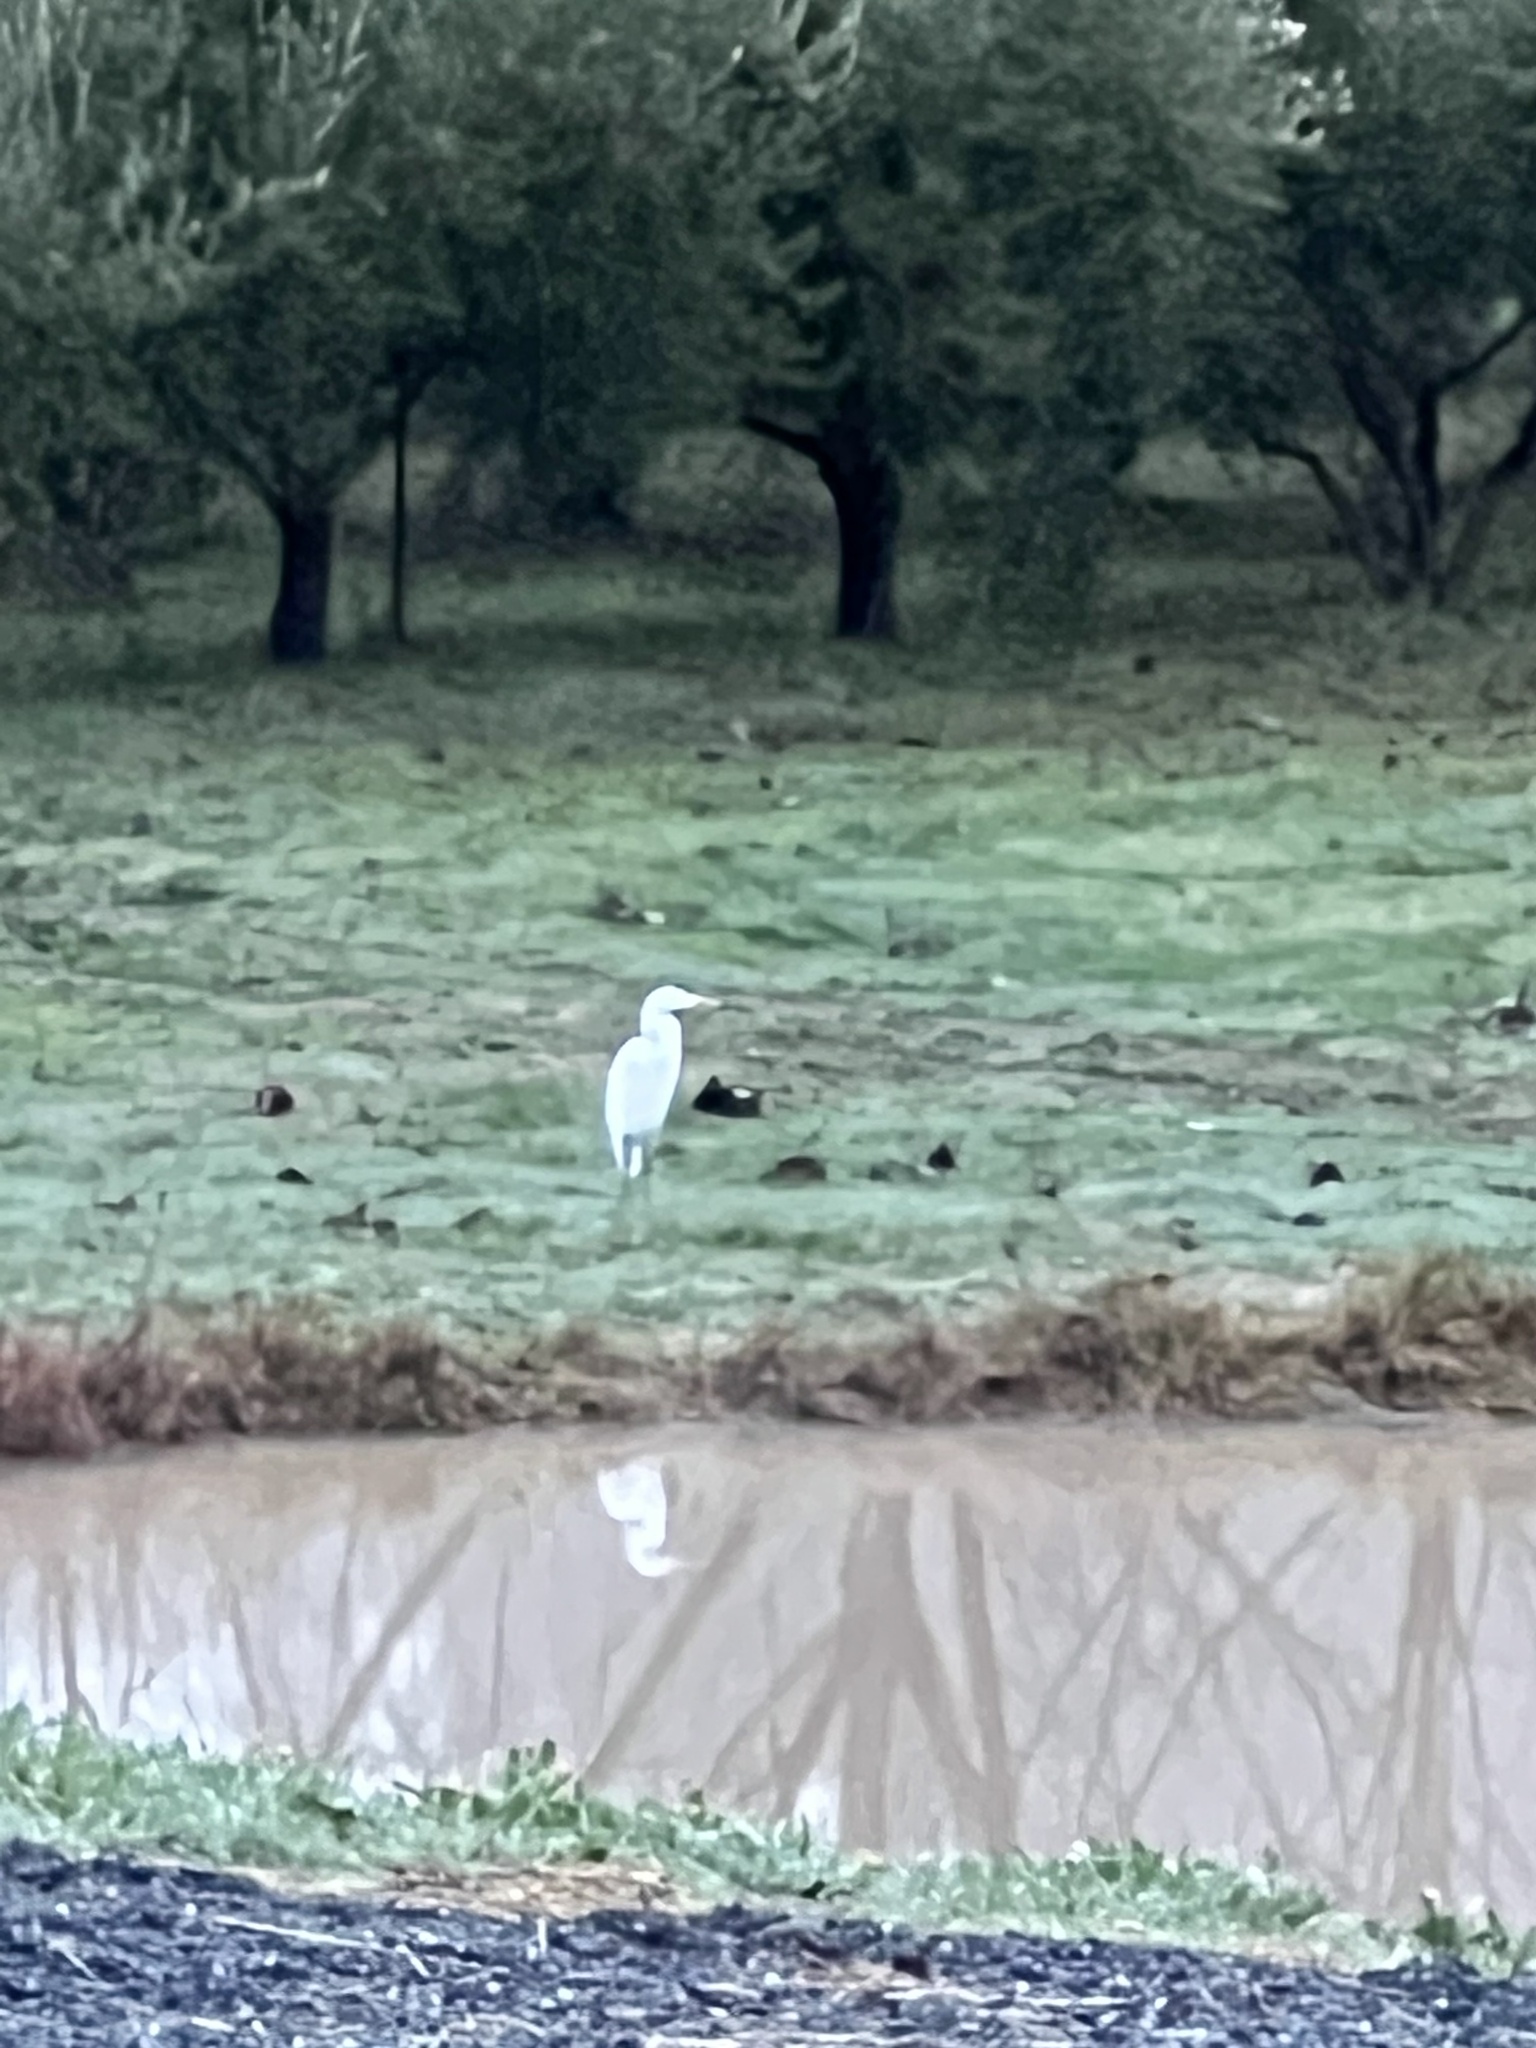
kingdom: Animalia
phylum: Chordata
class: Aves
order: Pelecaniformes
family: Ardeidae
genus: Ardea
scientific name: Ardea alba
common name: Great egret
